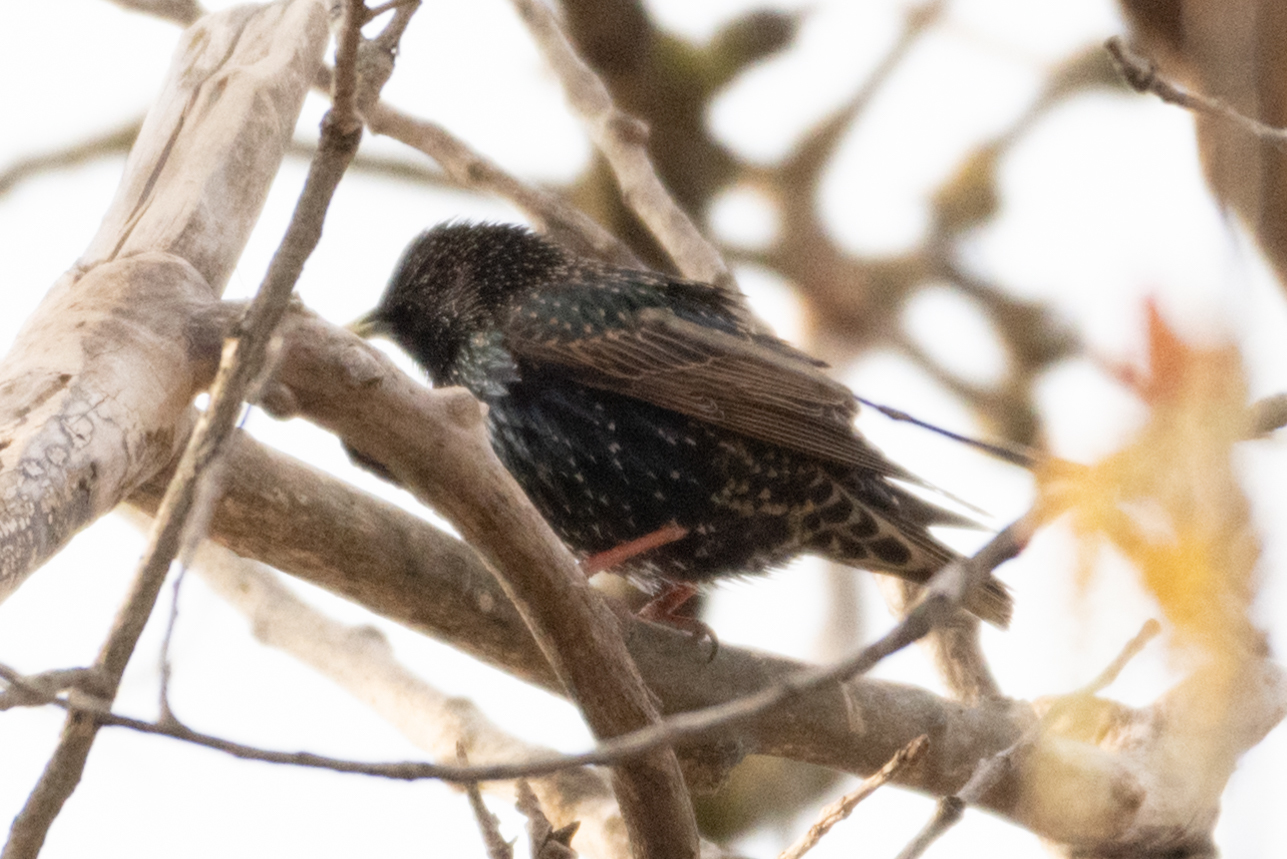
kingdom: Animalia
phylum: Chordata
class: Aves
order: Passeriformes
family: Sturnidae
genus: Sturnus
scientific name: Sturnus vulgaris
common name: Common starling
